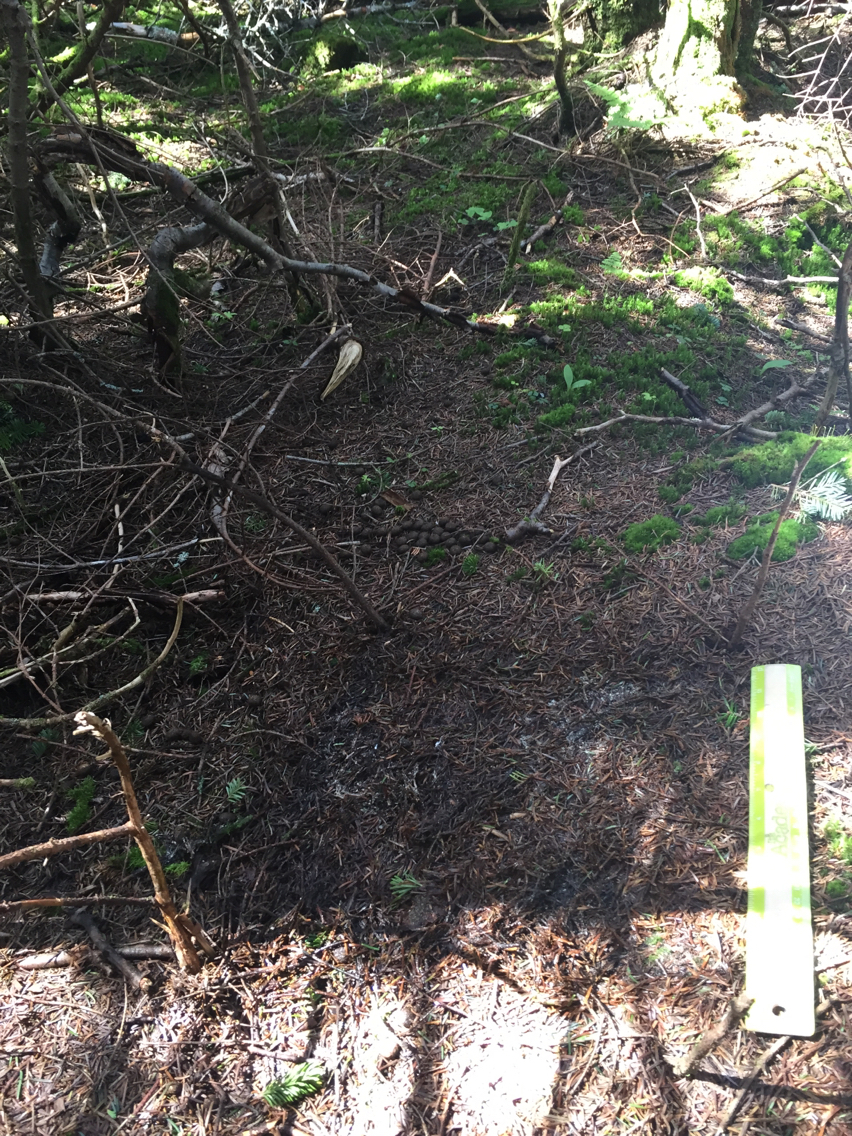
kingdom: Plantae
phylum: Tracheophyta
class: Pinopsida
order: Pinales
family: Pinaceae
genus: Abies
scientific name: Abies balsamea
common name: Balsam fir
